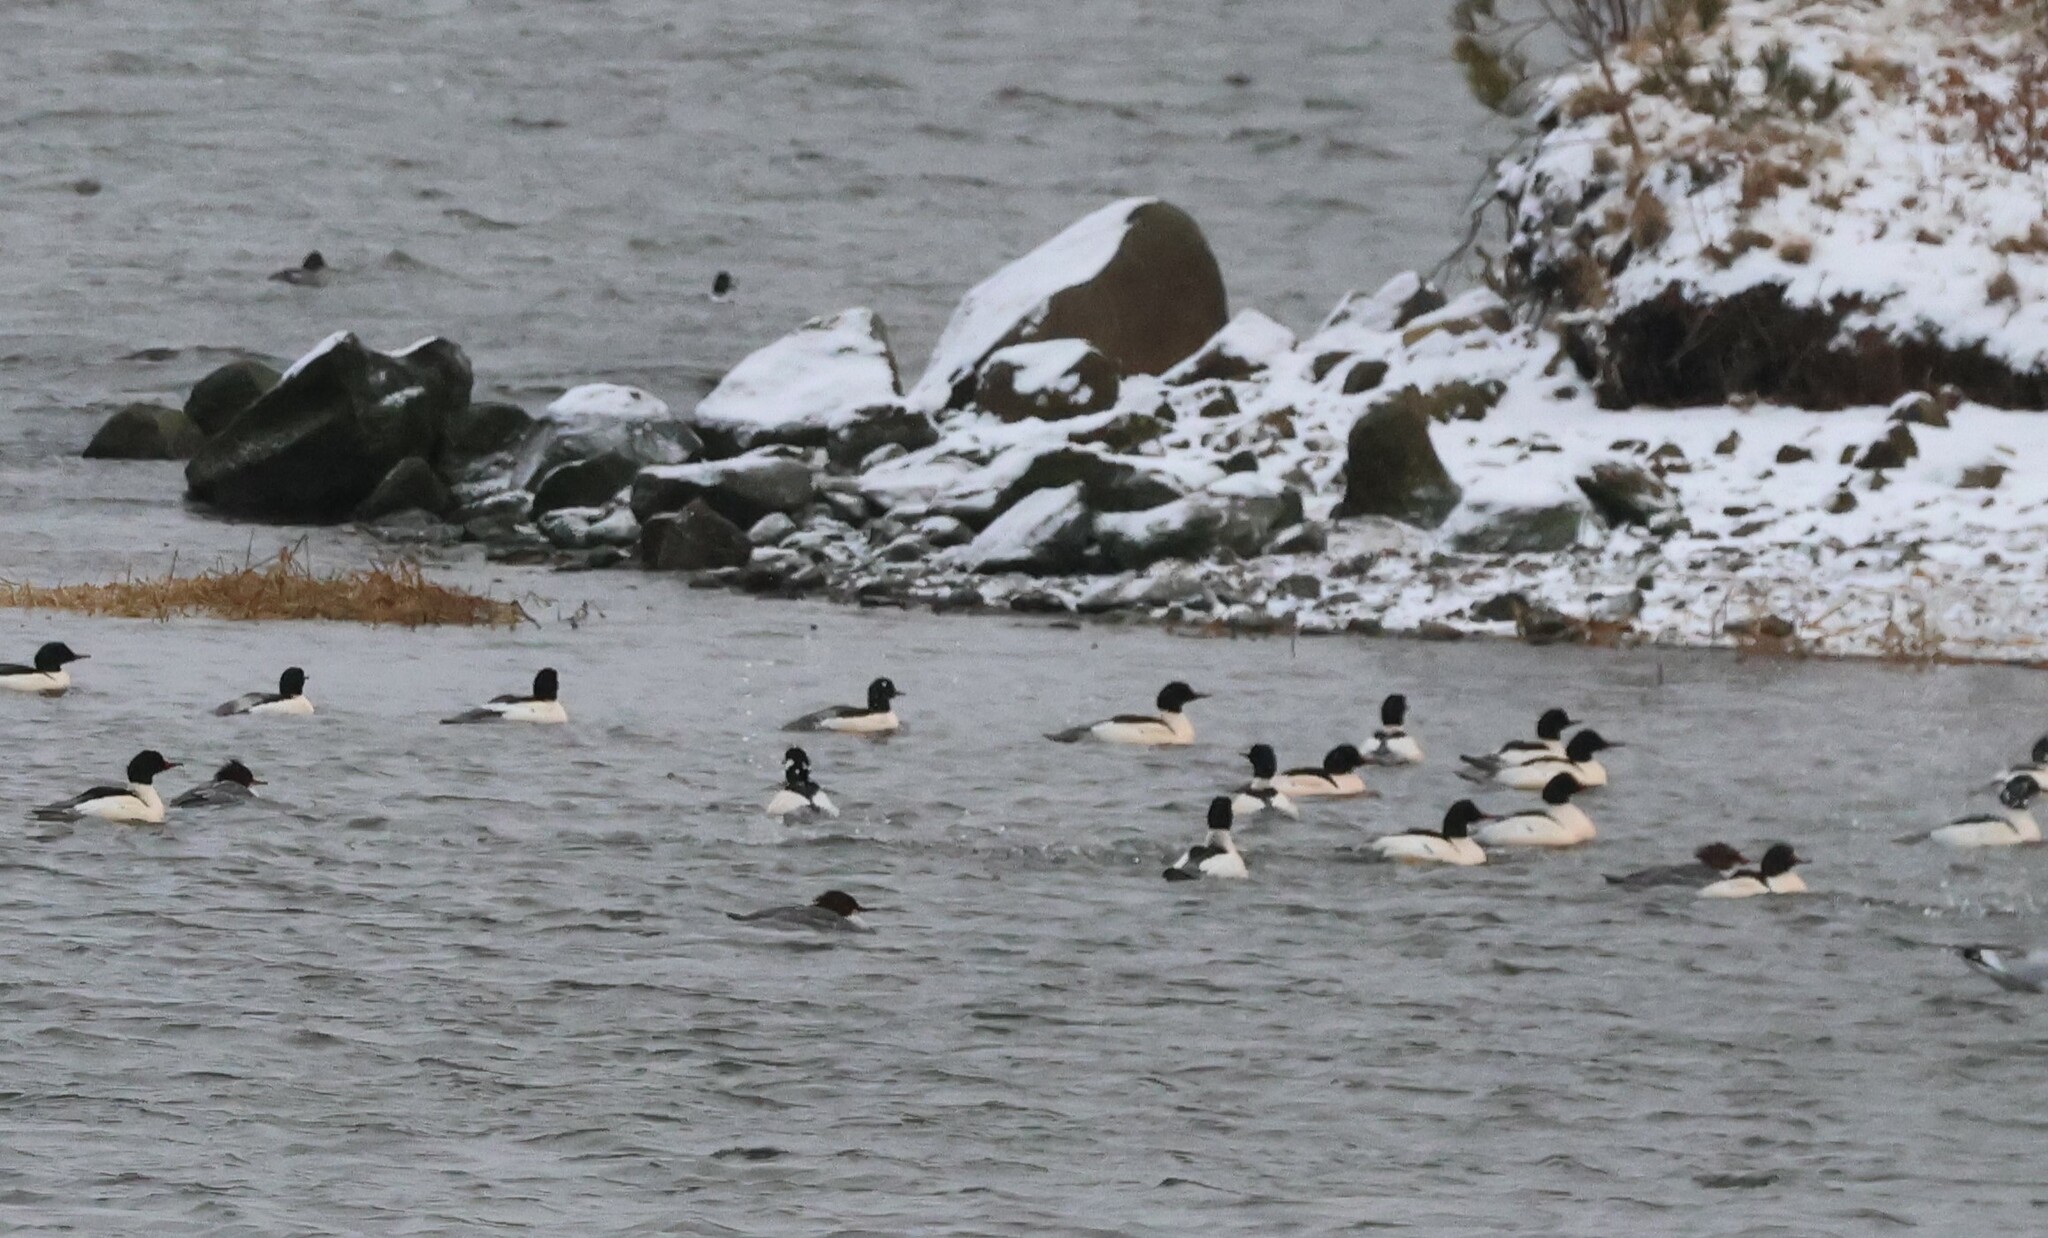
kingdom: Animalia
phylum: Chordata
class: Aves
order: Anseriformes
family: Anatidae
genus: Mergus
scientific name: Mergus merganser
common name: Common merganser
